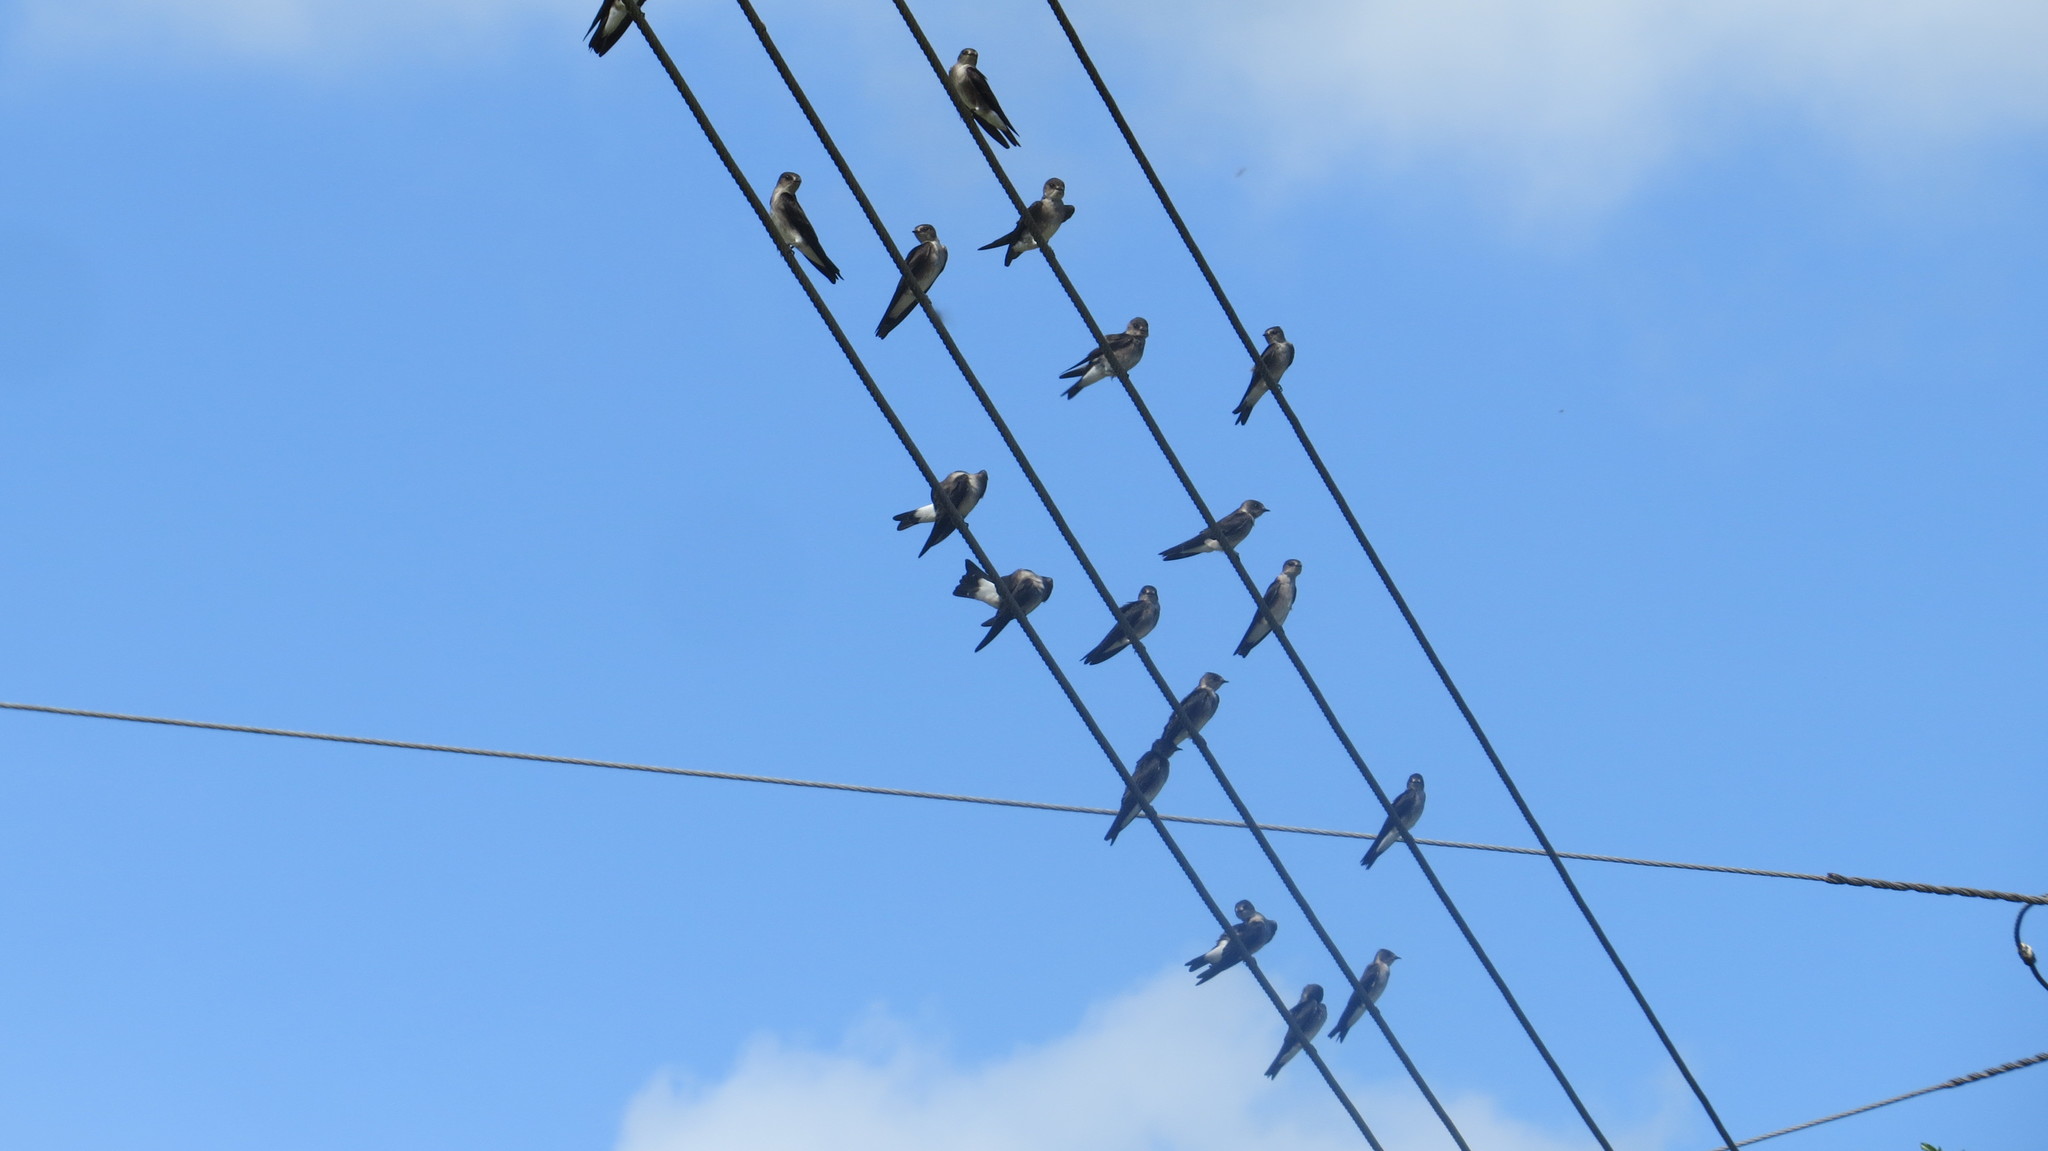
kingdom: Animalia
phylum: Chordata
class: Aves
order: Passeriformes
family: Hirundinidae
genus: Stelgidopteryx
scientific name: Stelgidopteryx serripennis
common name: Northern rough-winged swallow
